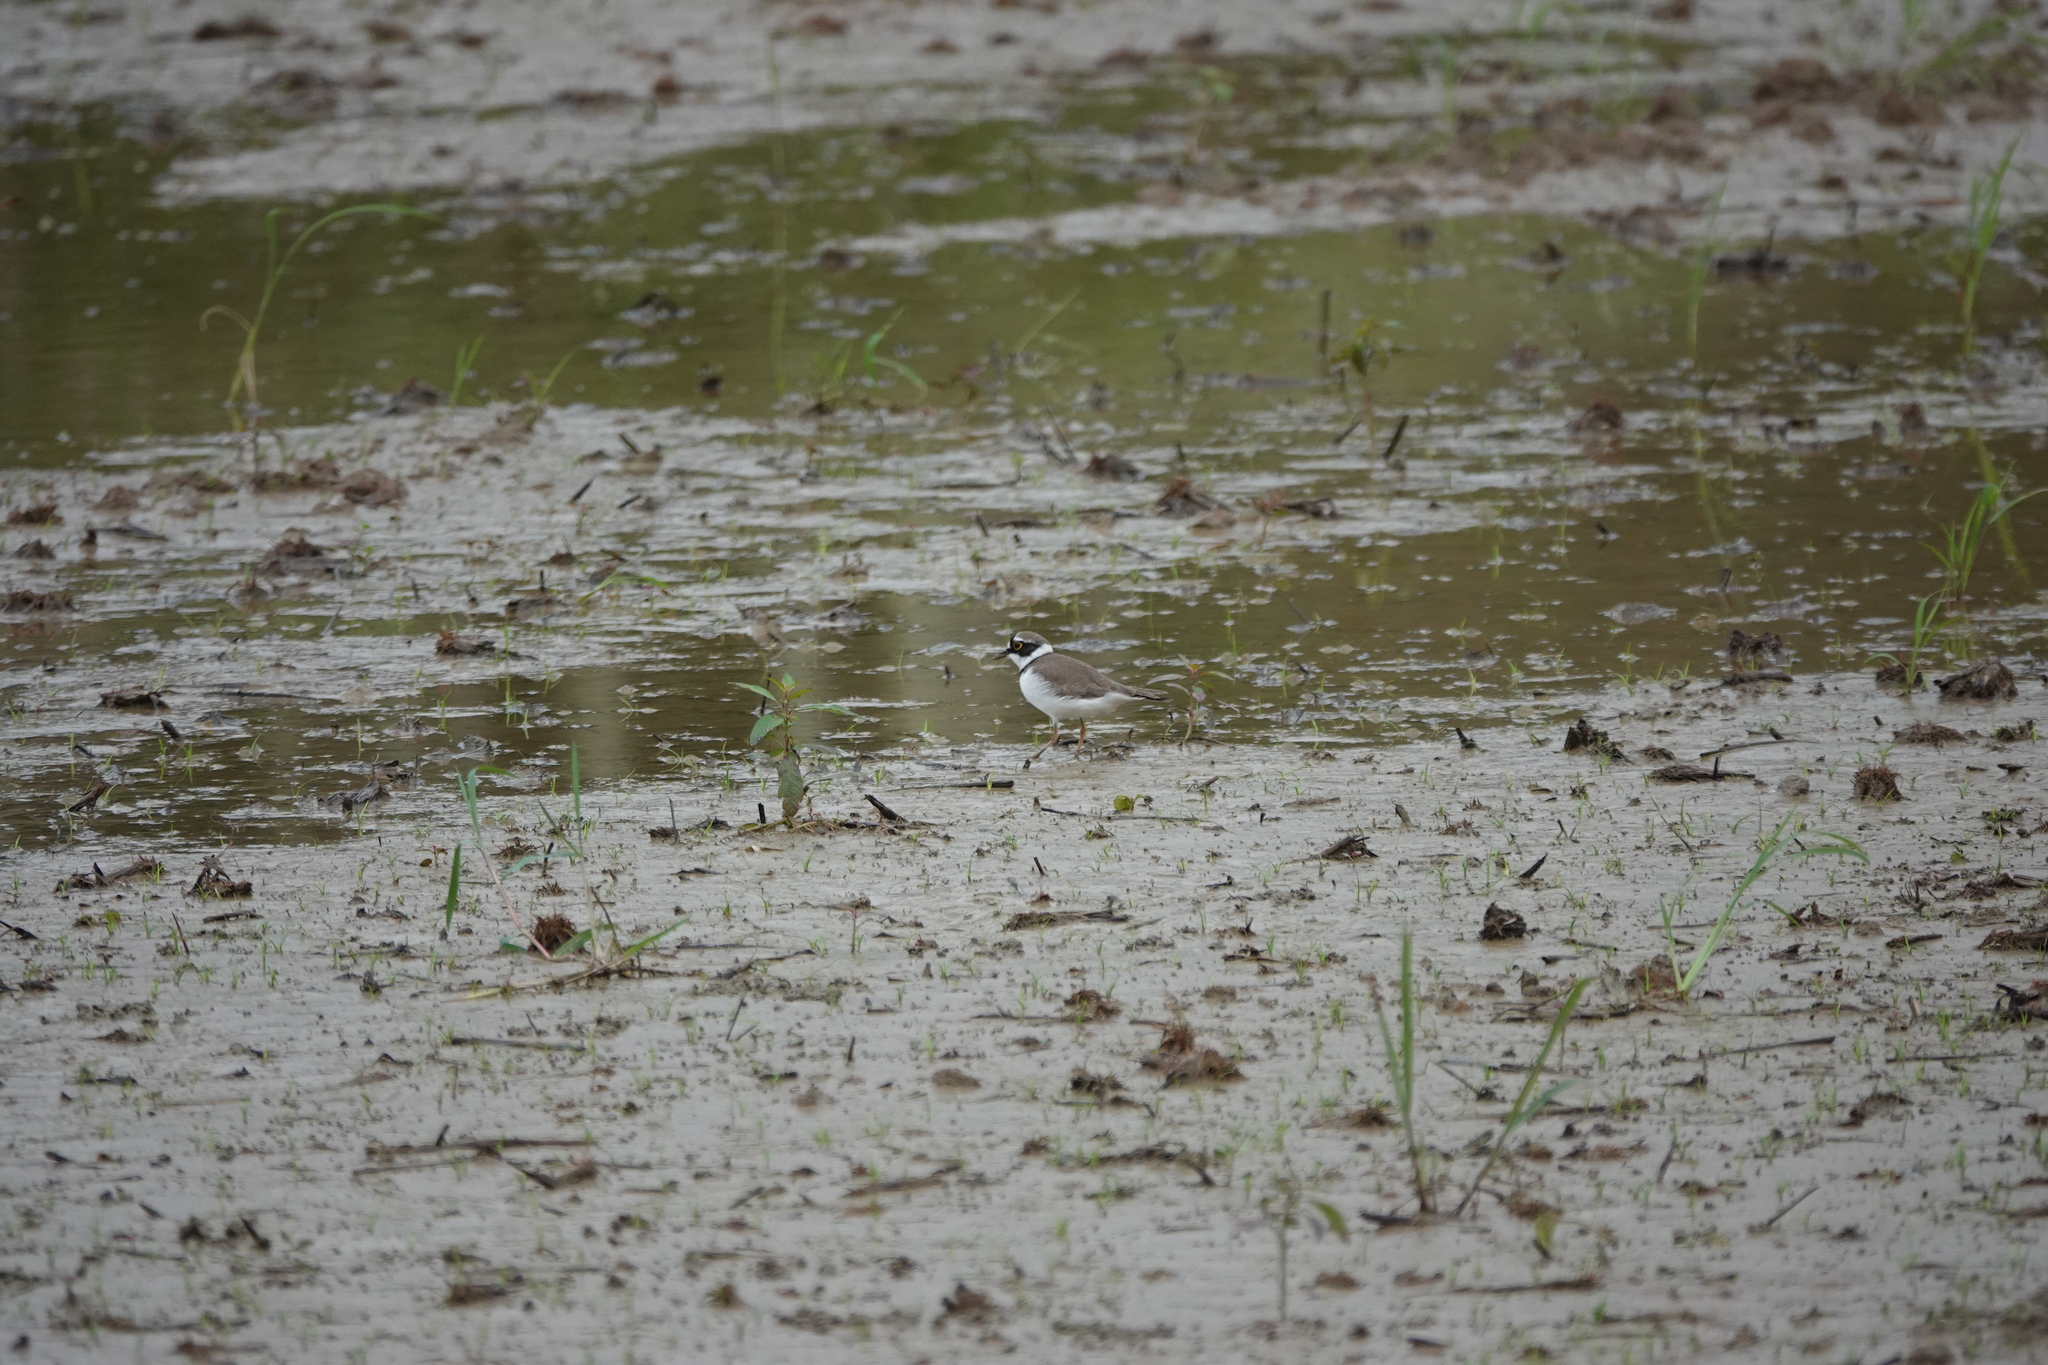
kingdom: Animalia
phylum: Chordata
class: Aves
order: Charadriiformes
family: Charadriidae
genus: Charadrius
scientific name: Charadrius dubius
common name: Little ringed plover
